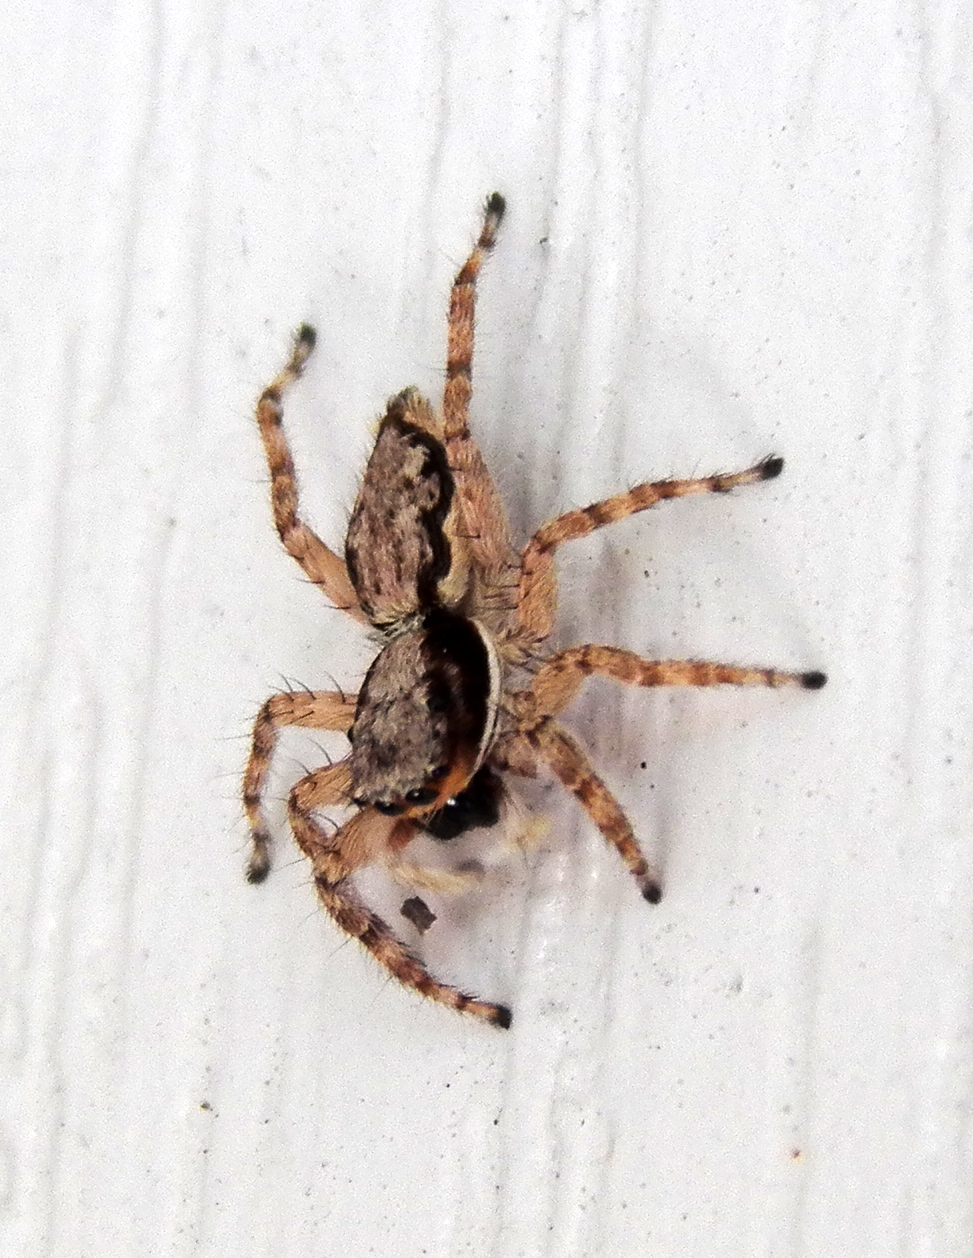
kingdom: Animalia
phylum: Arthropoda
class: Arachnida
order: Araneae
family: Salticidae
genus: Menemerus
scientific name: Menemerus bivittatus
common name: Gray wall jumper
